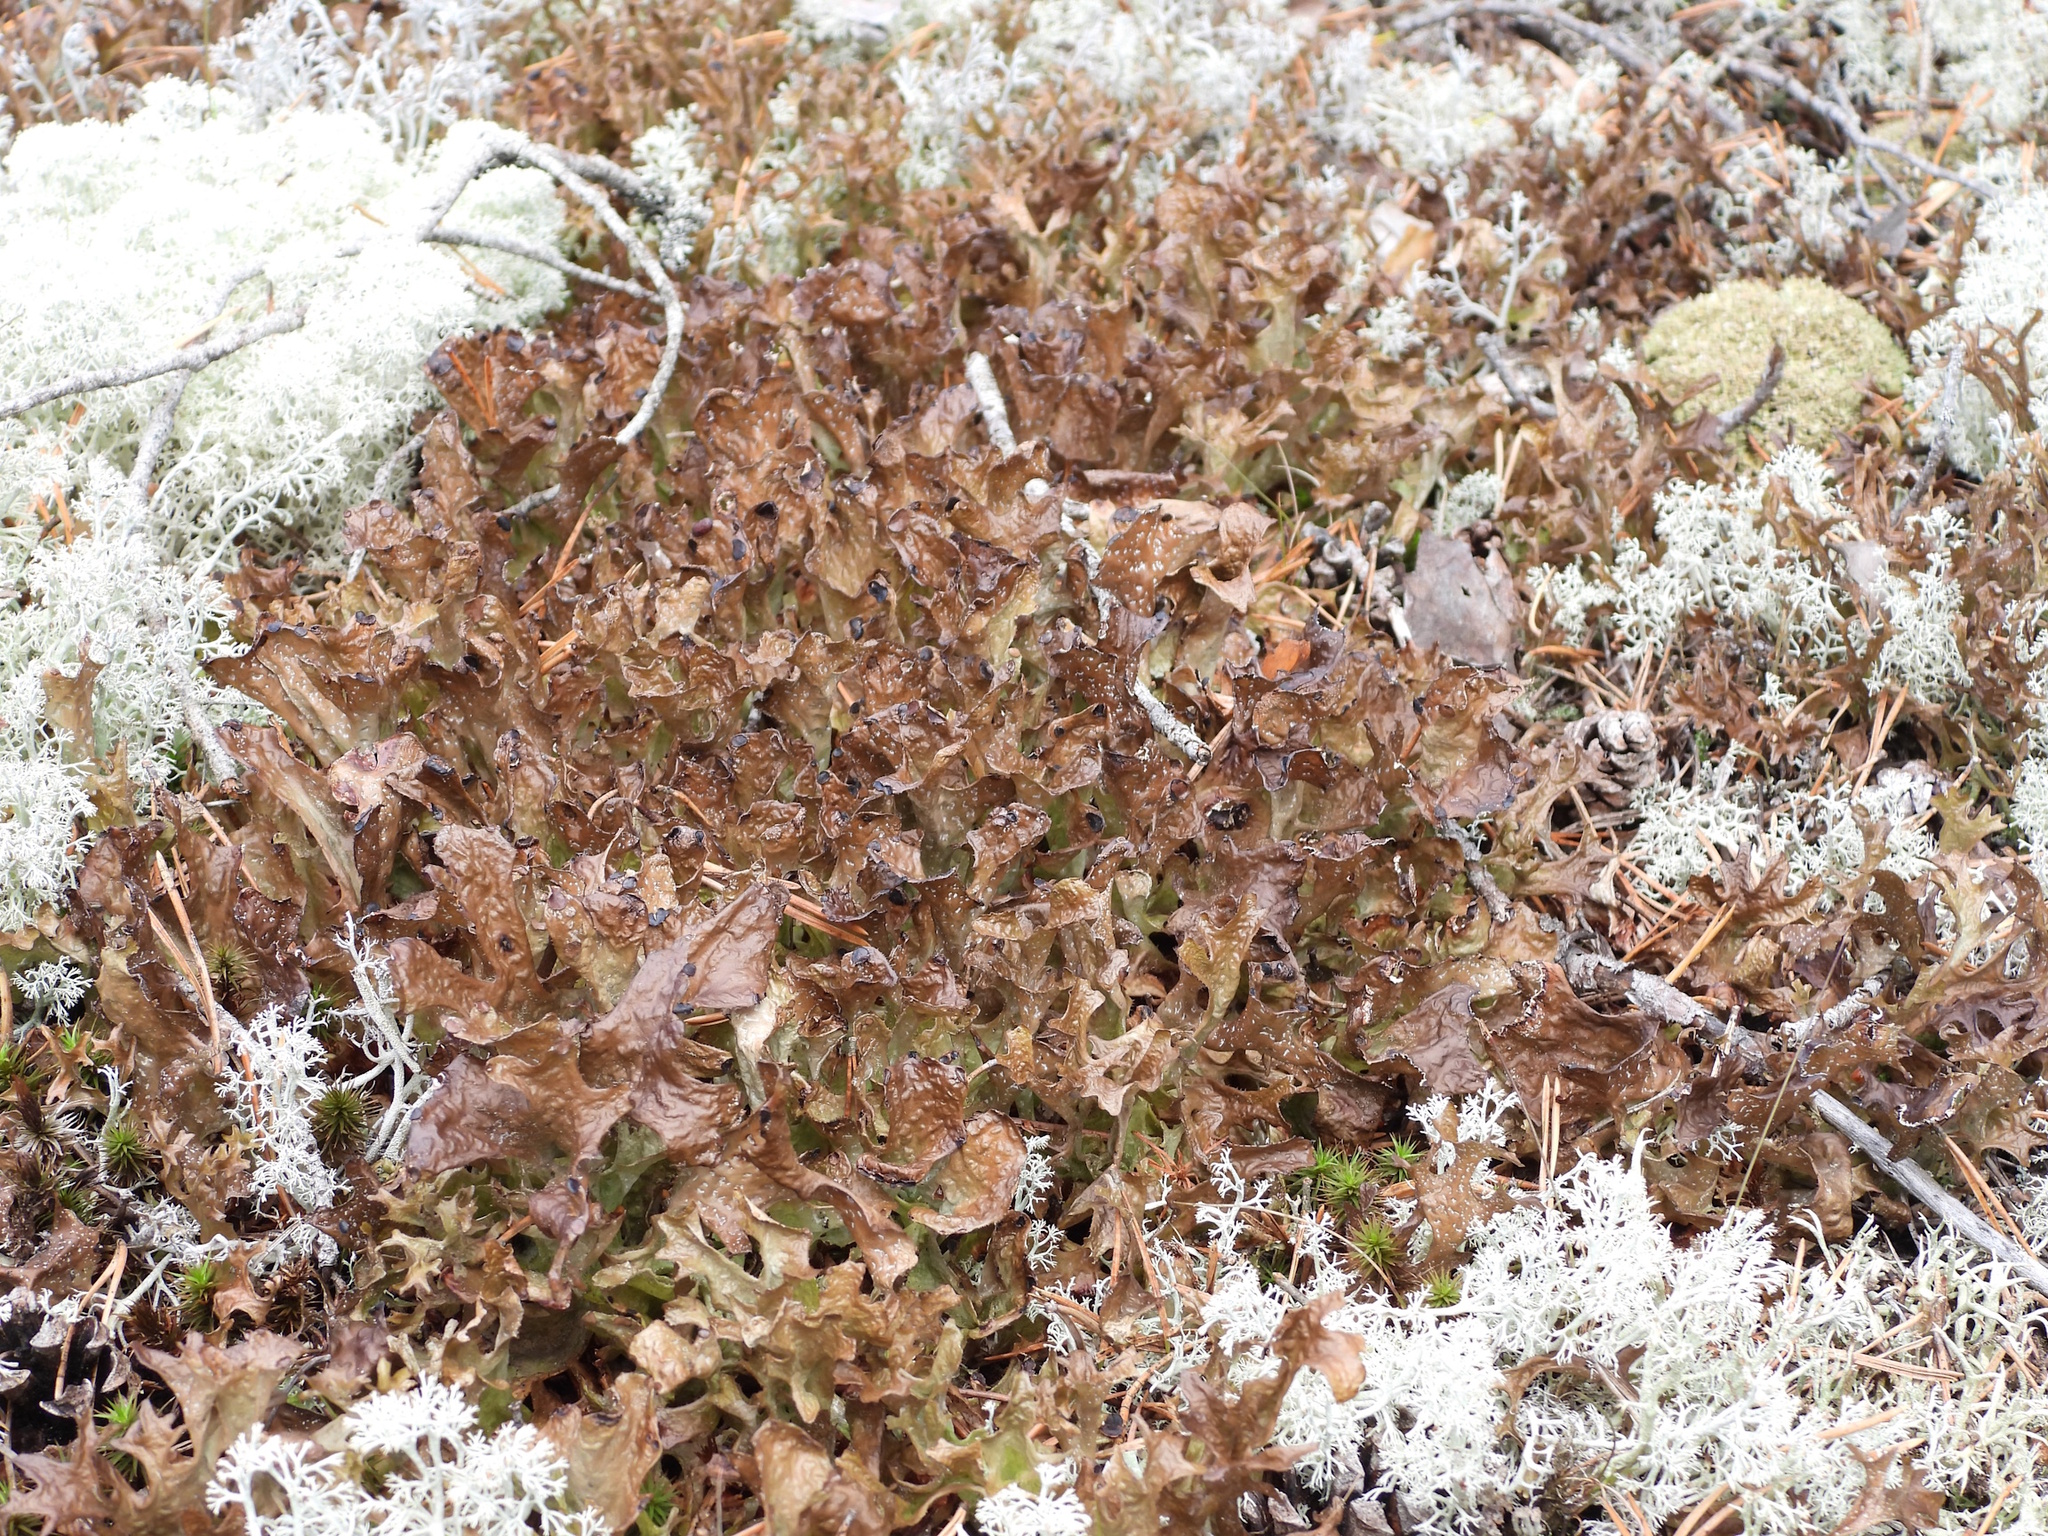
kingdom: Fungi
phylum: Ascomycota
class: Lecanoromycetes
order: Lecanorales
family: Parmeliaceae
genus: Cetraria
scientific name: Cetraria islandica
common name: Iceland lichen
